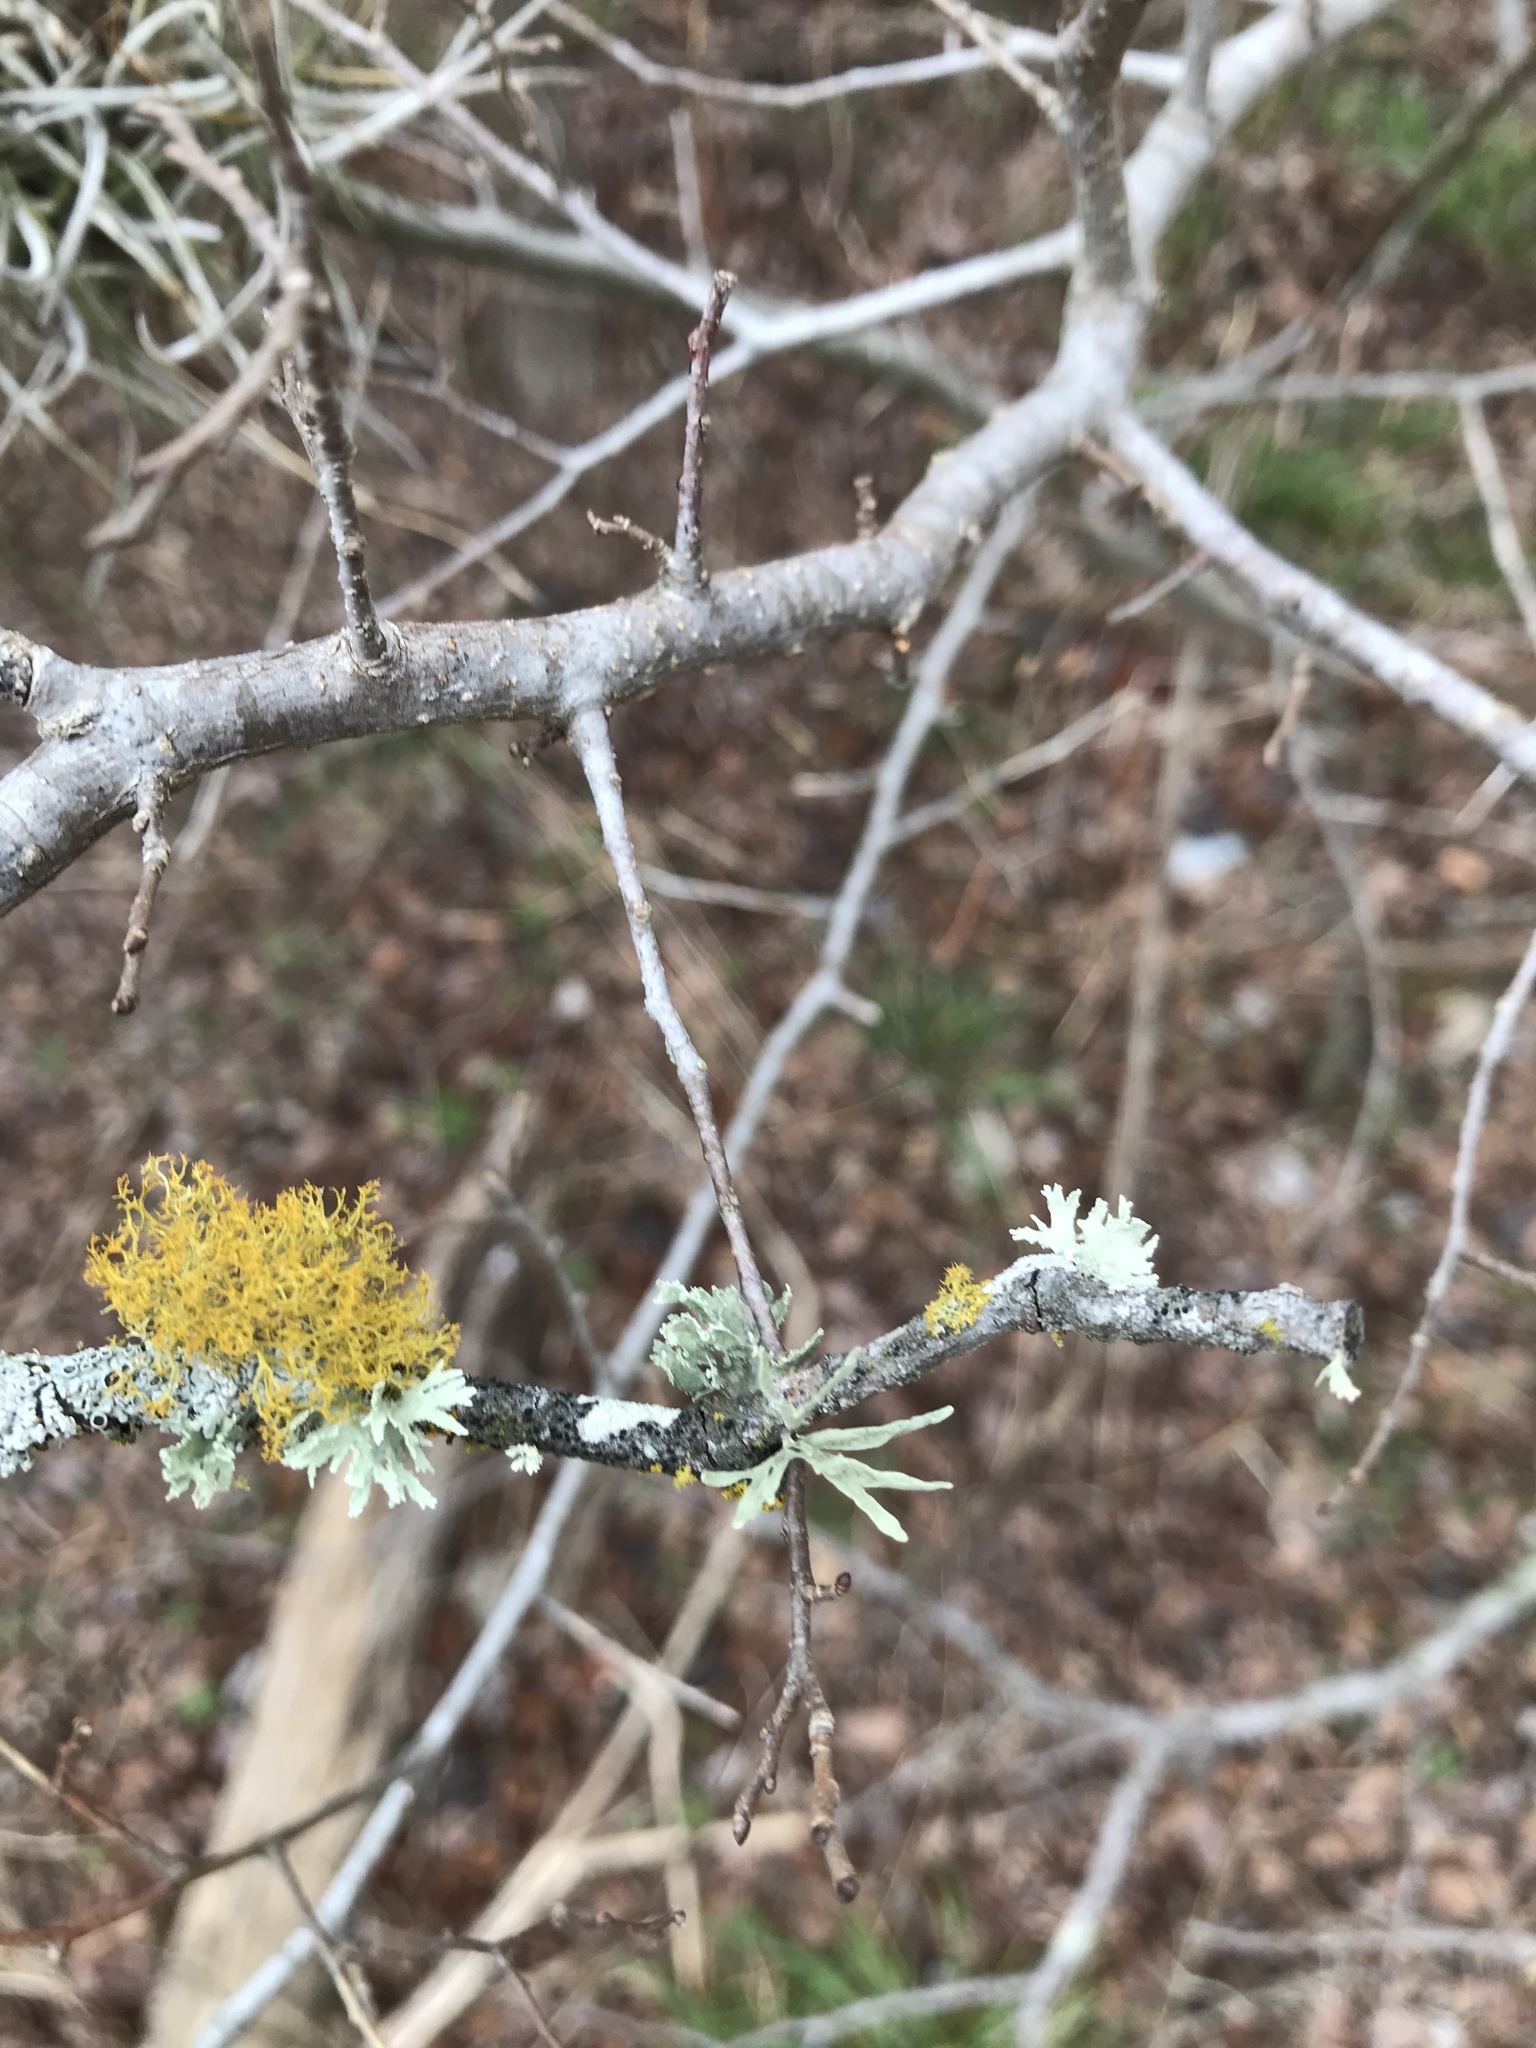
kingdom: Fungi
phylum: Ascomycota
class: Lecanoromycetes
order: Teloschistales
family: Teloschistaceae
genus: Teloschistes
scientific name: Teloschistes exilis
